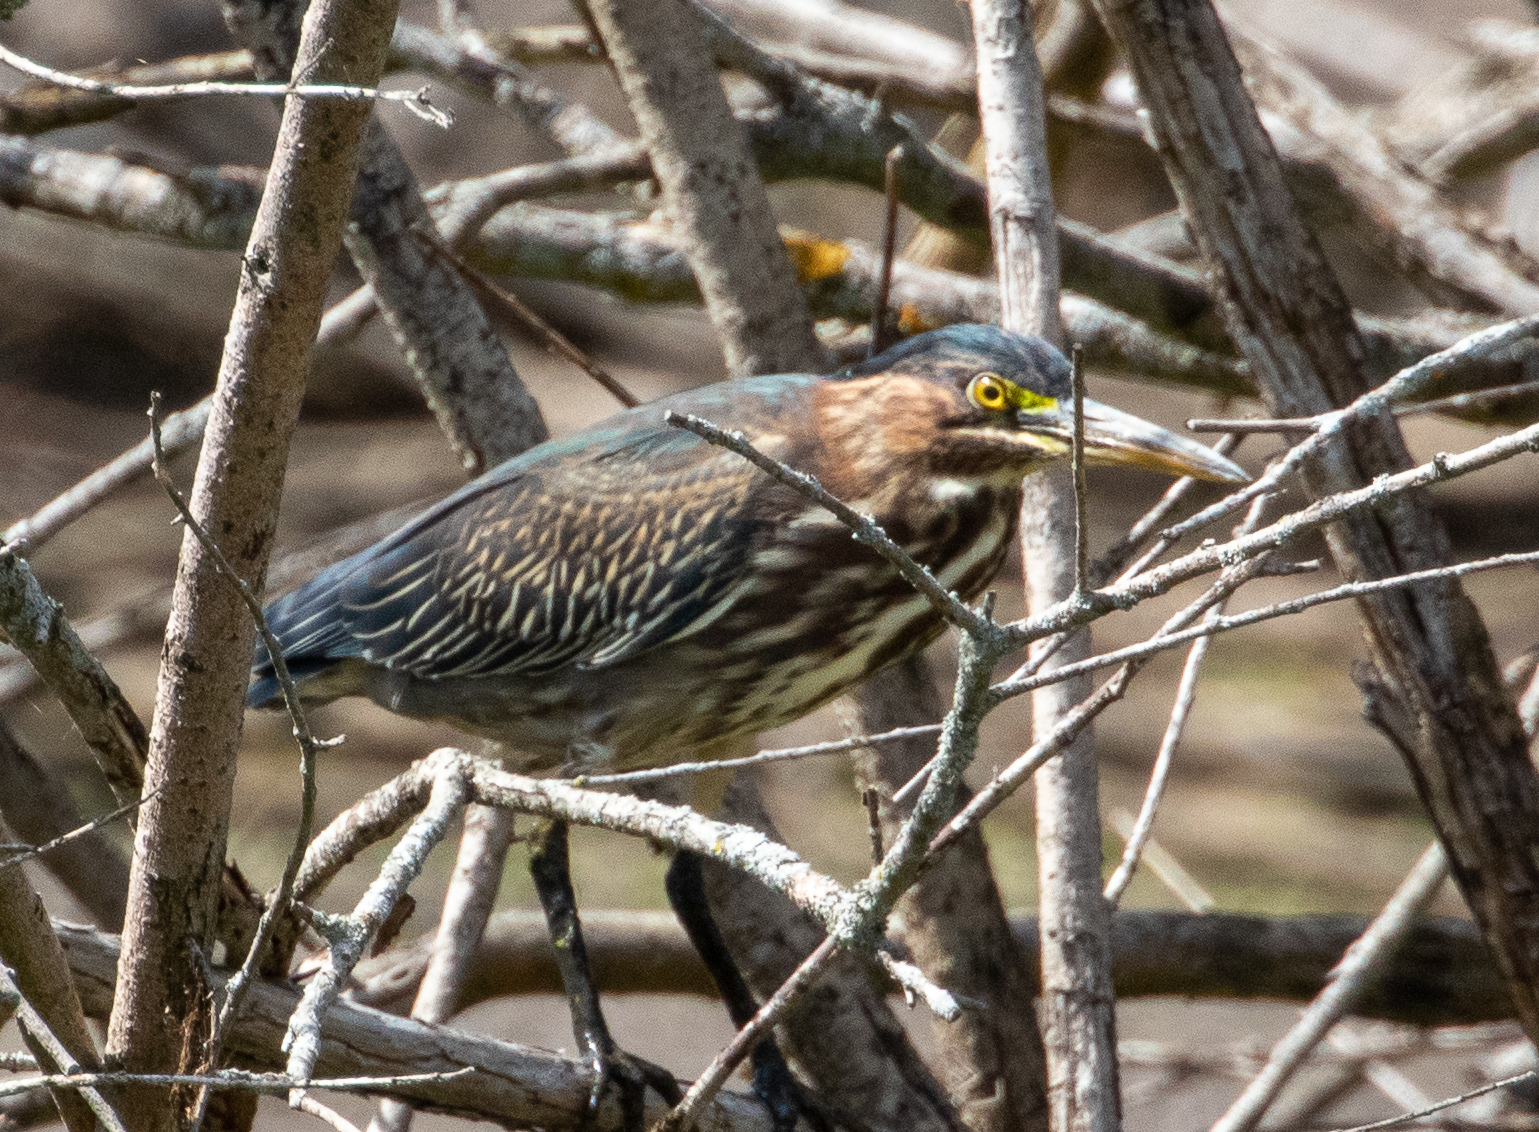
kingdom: Animalia
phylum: Chordata
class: Aves
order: Pelecaniformes
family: Ardeidae
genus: Butorides
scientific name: Butorides virescens
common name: Green heron
